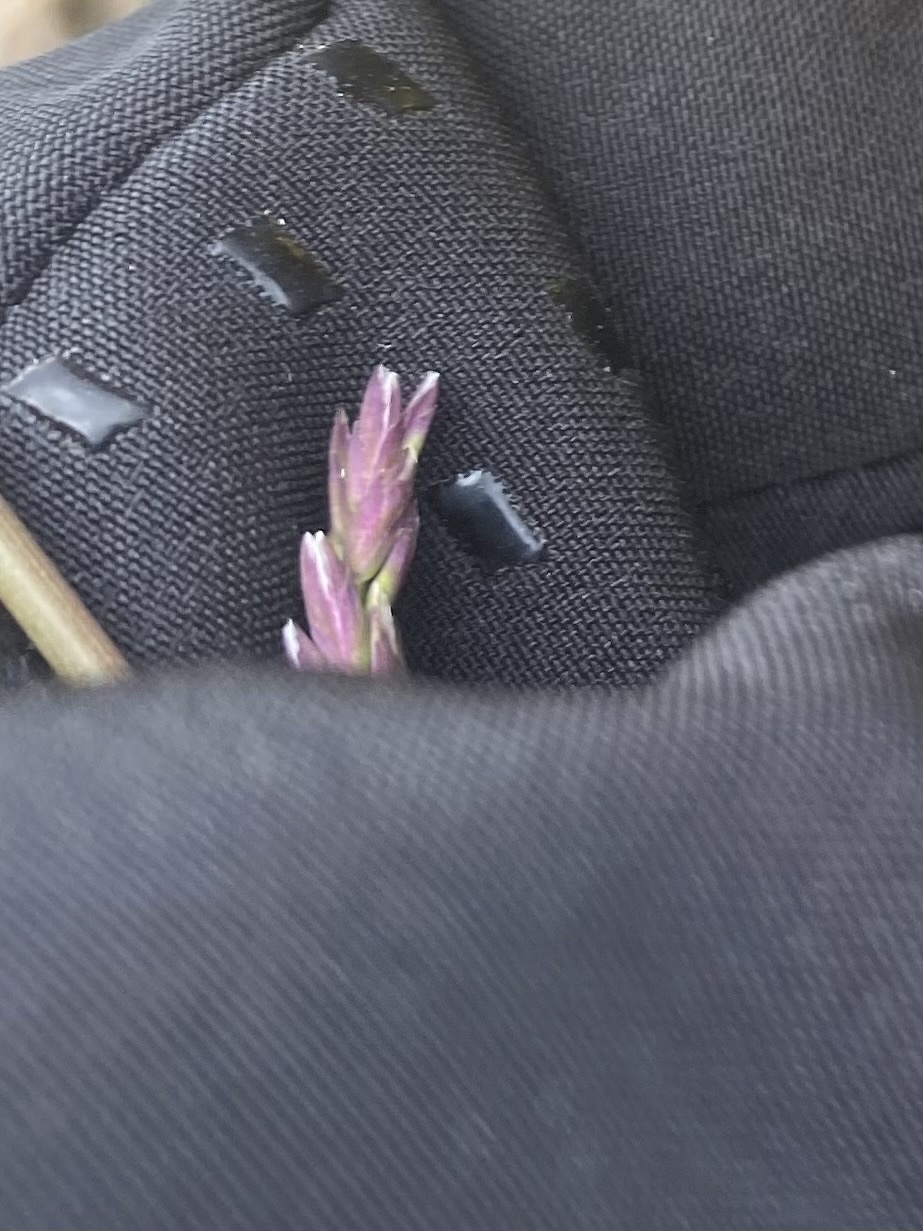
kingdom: Plantae
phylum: Tracheophyta
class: Liliopsida
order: Poales
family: Poaceae
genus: Arctagrostis
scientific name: Arctagrostis latifolia
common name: Arctic grass
